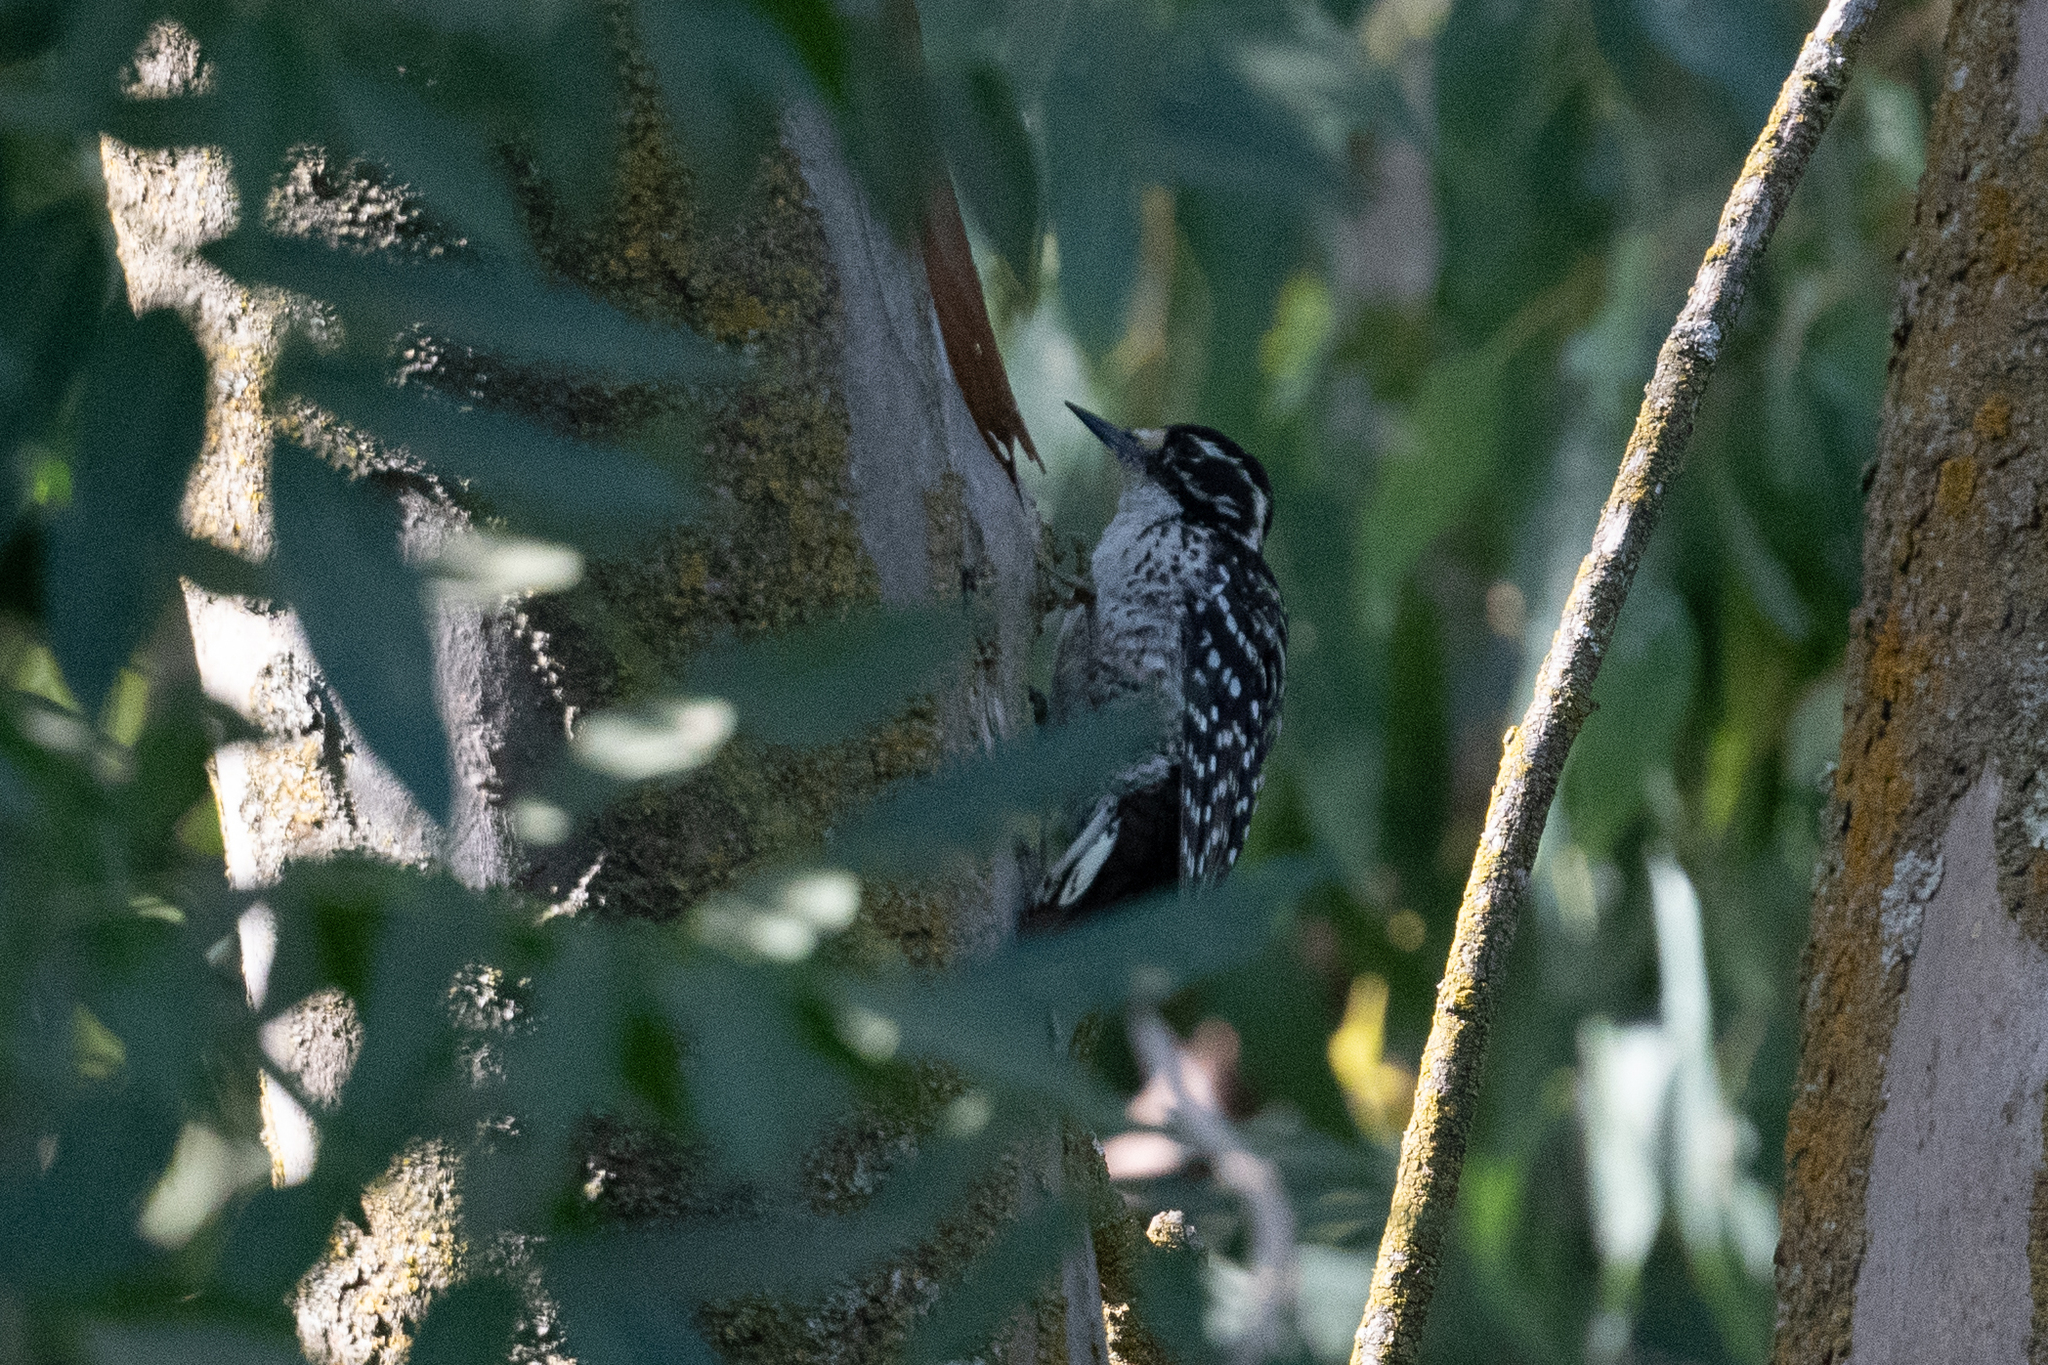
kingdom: Animalia
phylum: Chordata
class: Aves
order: Piciformes
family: Picidae
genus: Dryobates
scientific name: Dryobates nuttallii
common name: Nuttall's woodpecker
